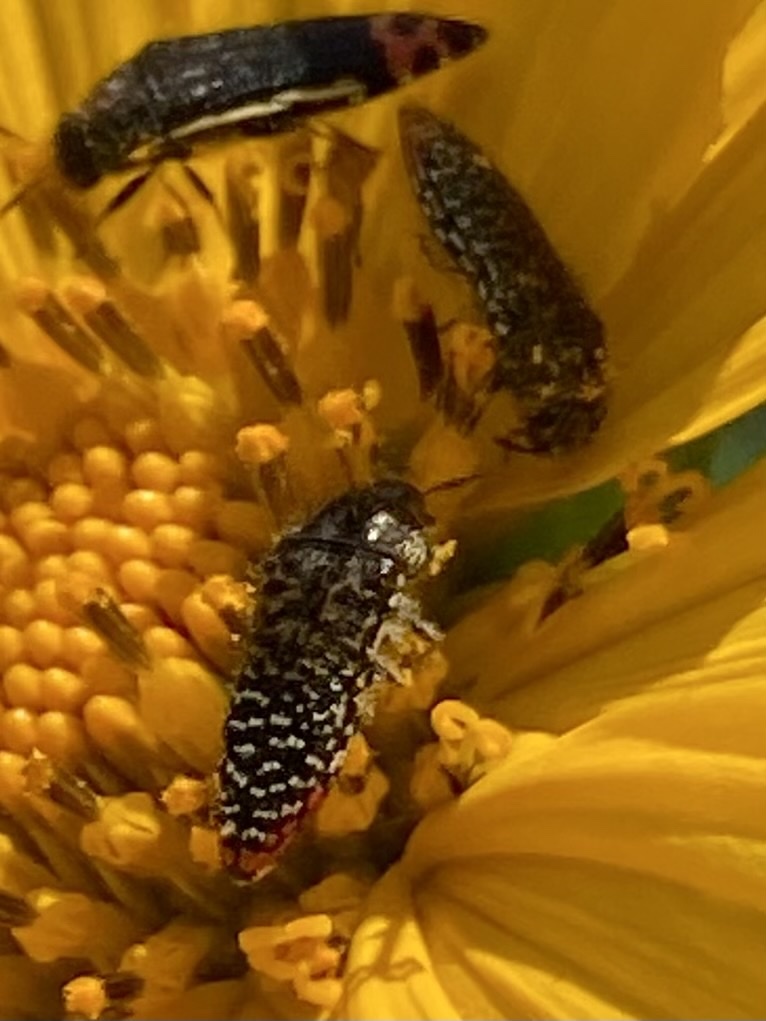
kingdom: Animalia
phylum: Arthropoda
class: Insecta
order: Coleoptera
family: Buprestidae
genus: Acmaeodera
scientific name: Acmaeodera haemorrhoa
